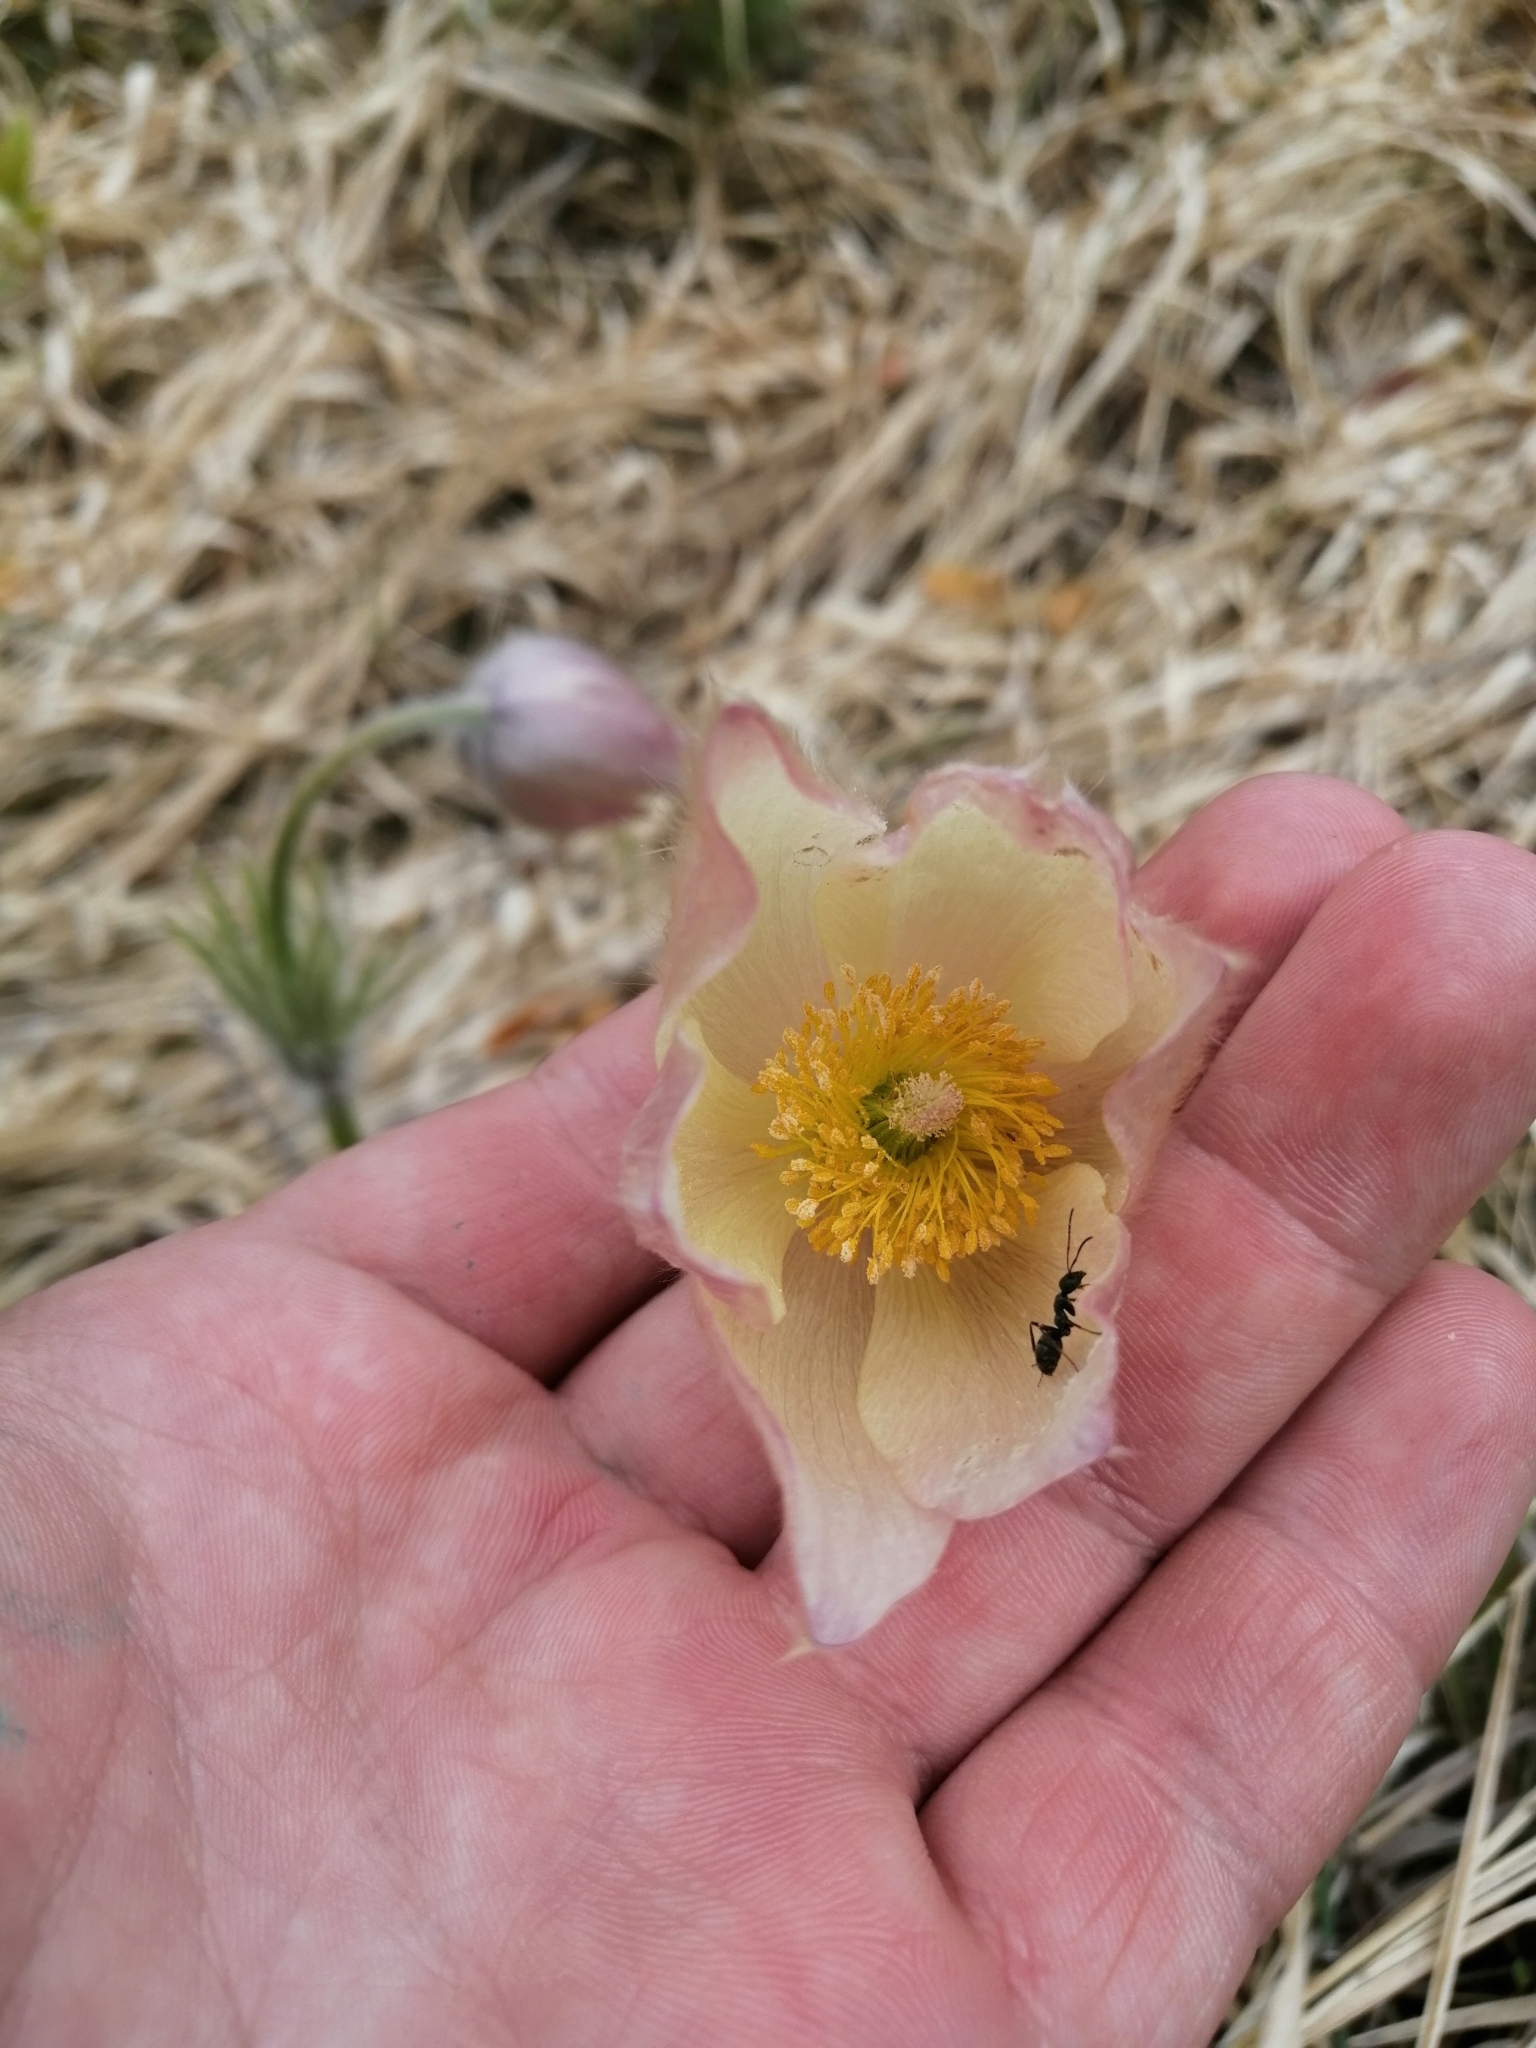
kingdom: Plantae
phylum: Tracheophyta
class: Magnoliopsida
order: Ranunculales
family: Ranunculaceae
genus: Pulsatilla
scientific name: Pulsatilla patens
